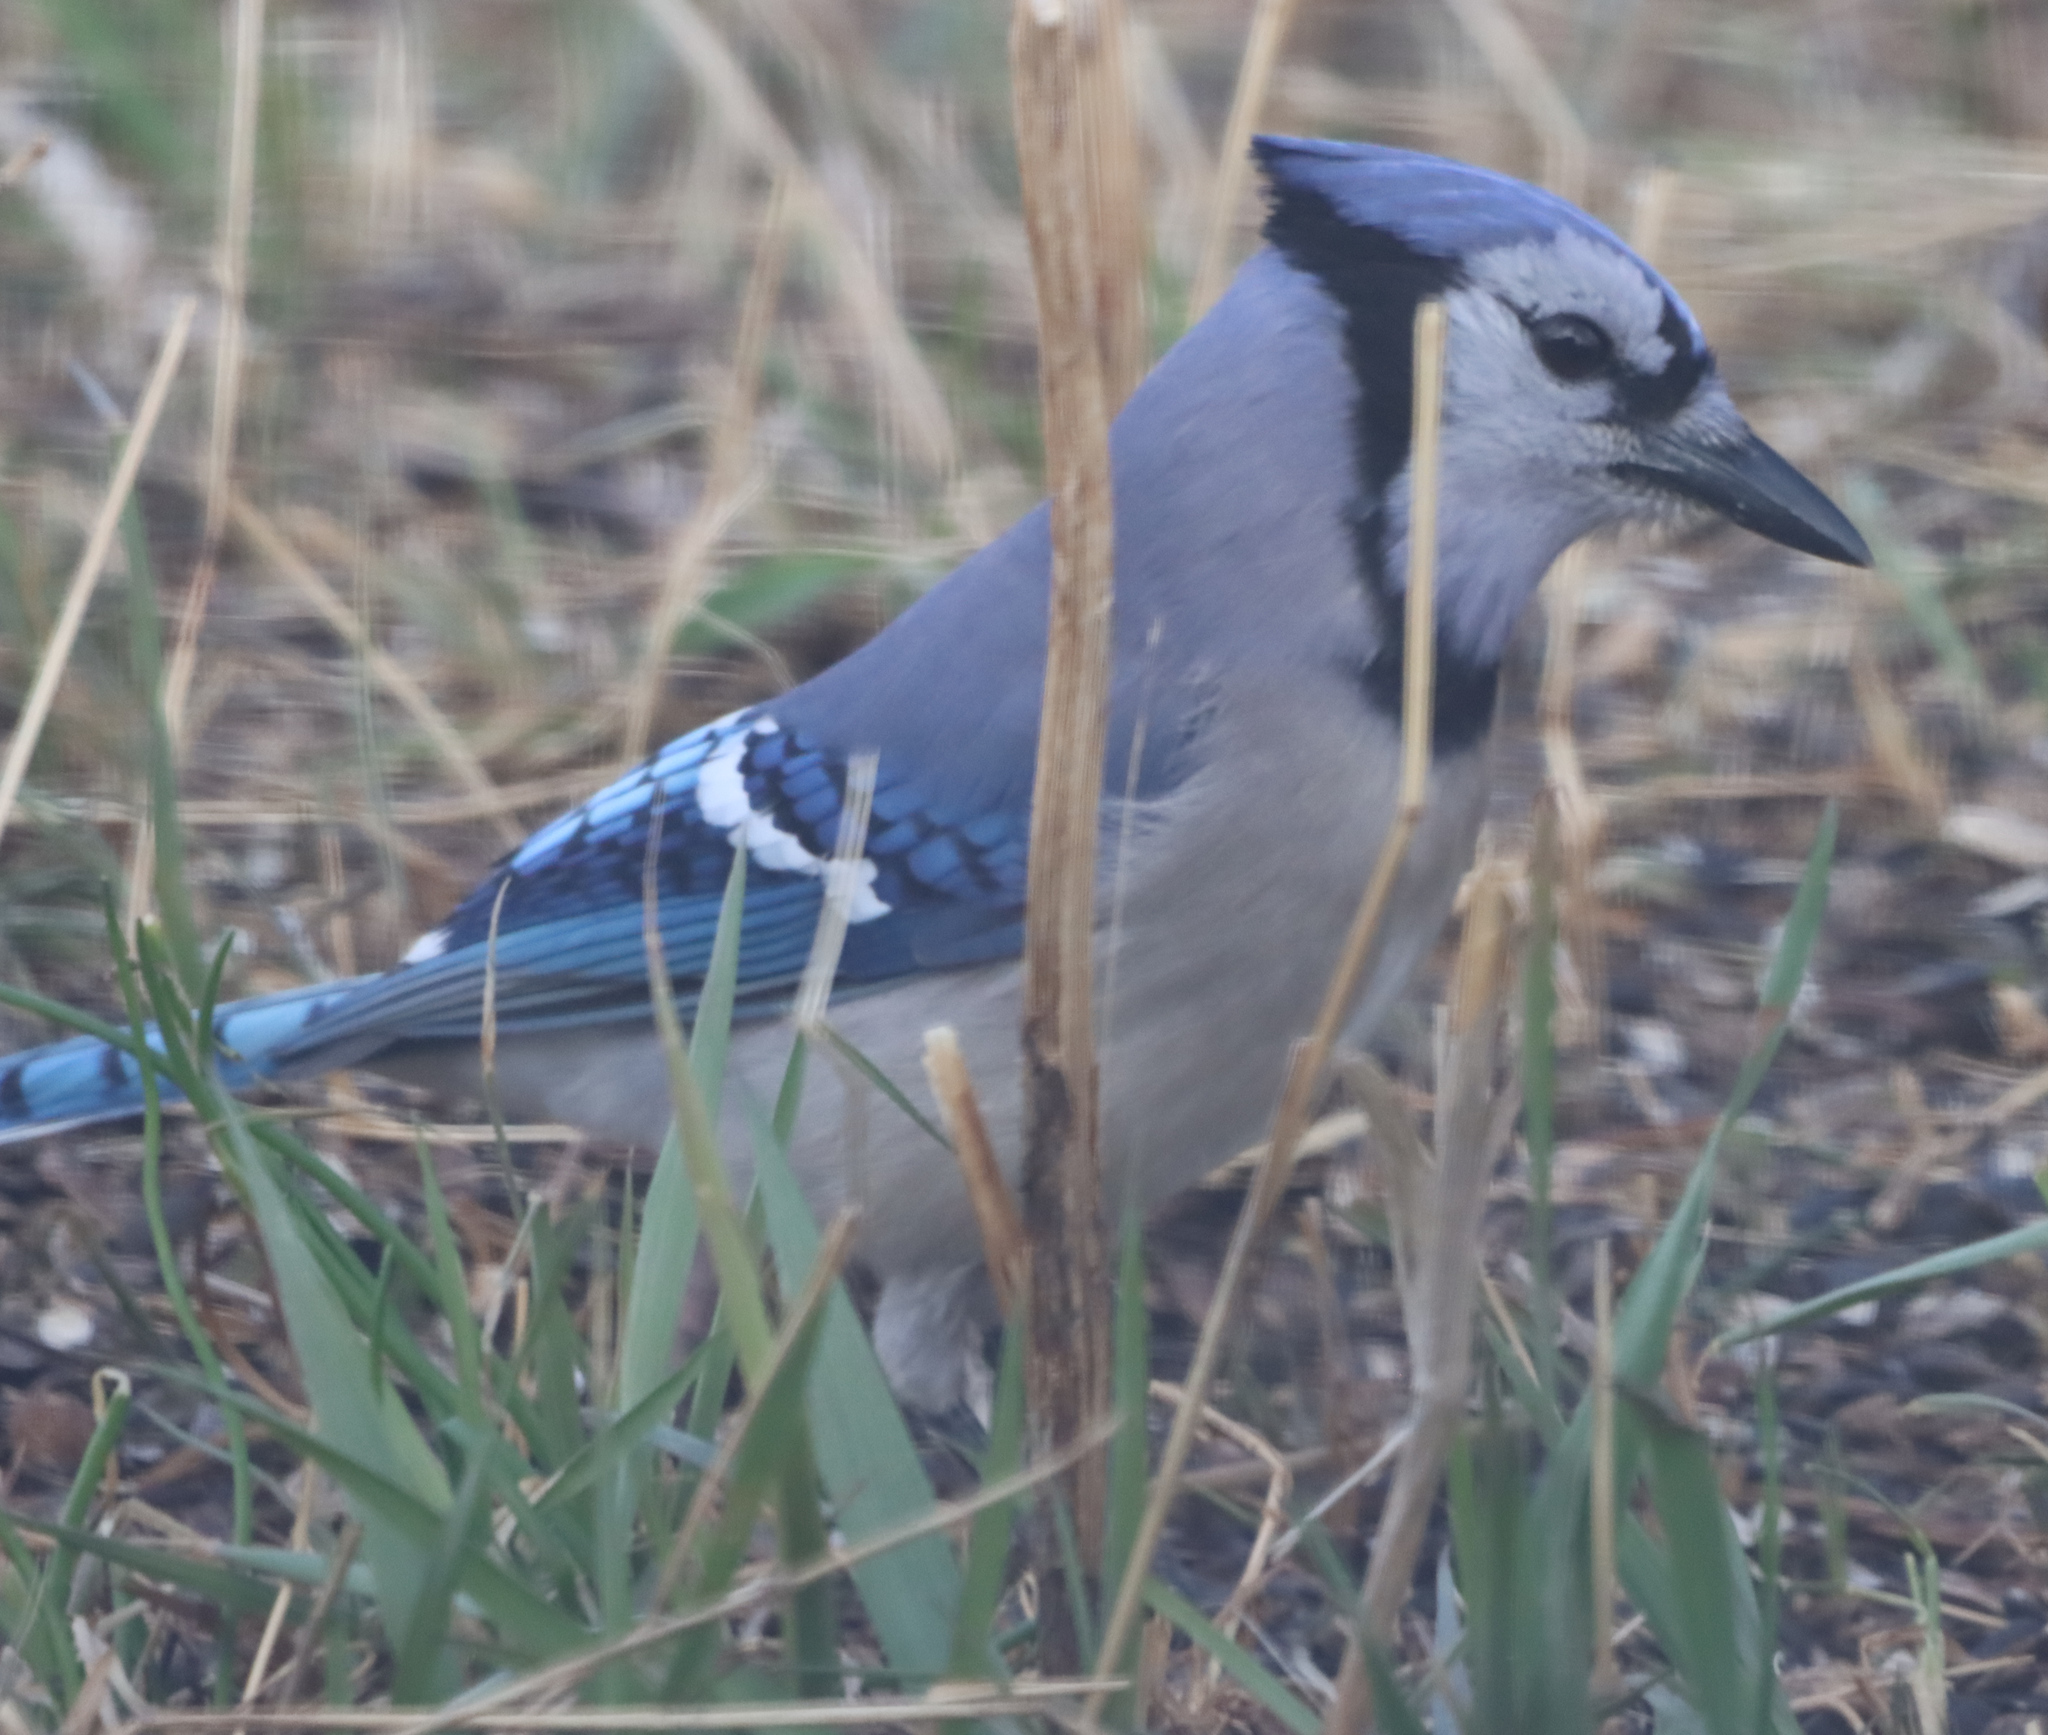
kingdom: Animalia
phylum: Chordata
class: Aves
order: Passeriformes
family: Corvidae
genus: Cyanocitta
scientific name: Cyanocitta cristata
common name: Blue jay
